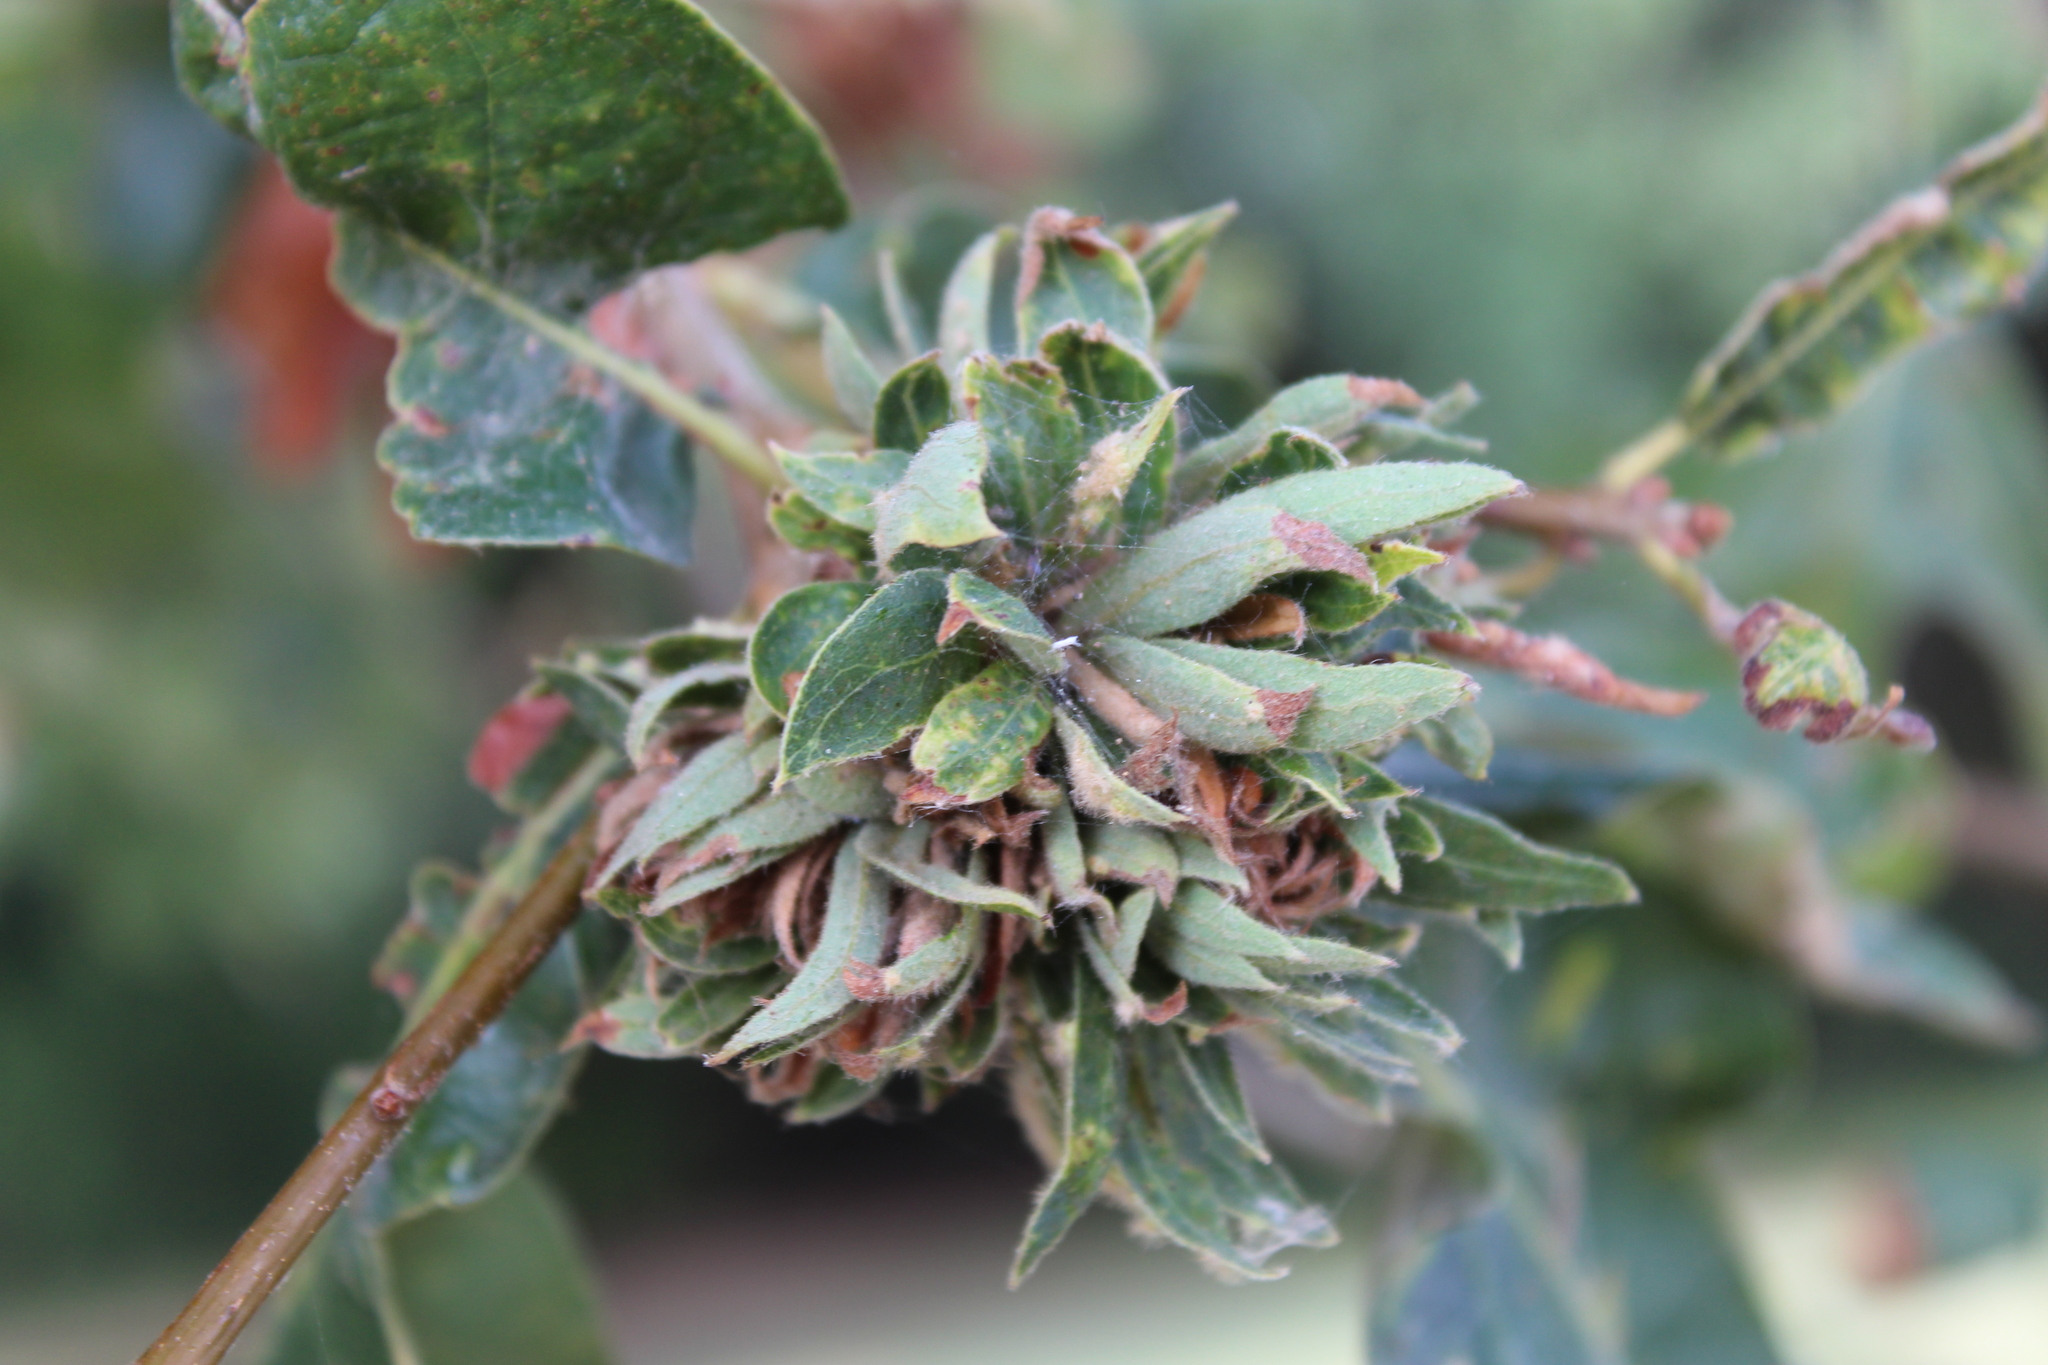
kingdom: Animalia
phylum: Arthropoda
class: Insecta
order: Hymenoptera
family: Cynipidae
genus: Andricus
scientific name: Andricus
